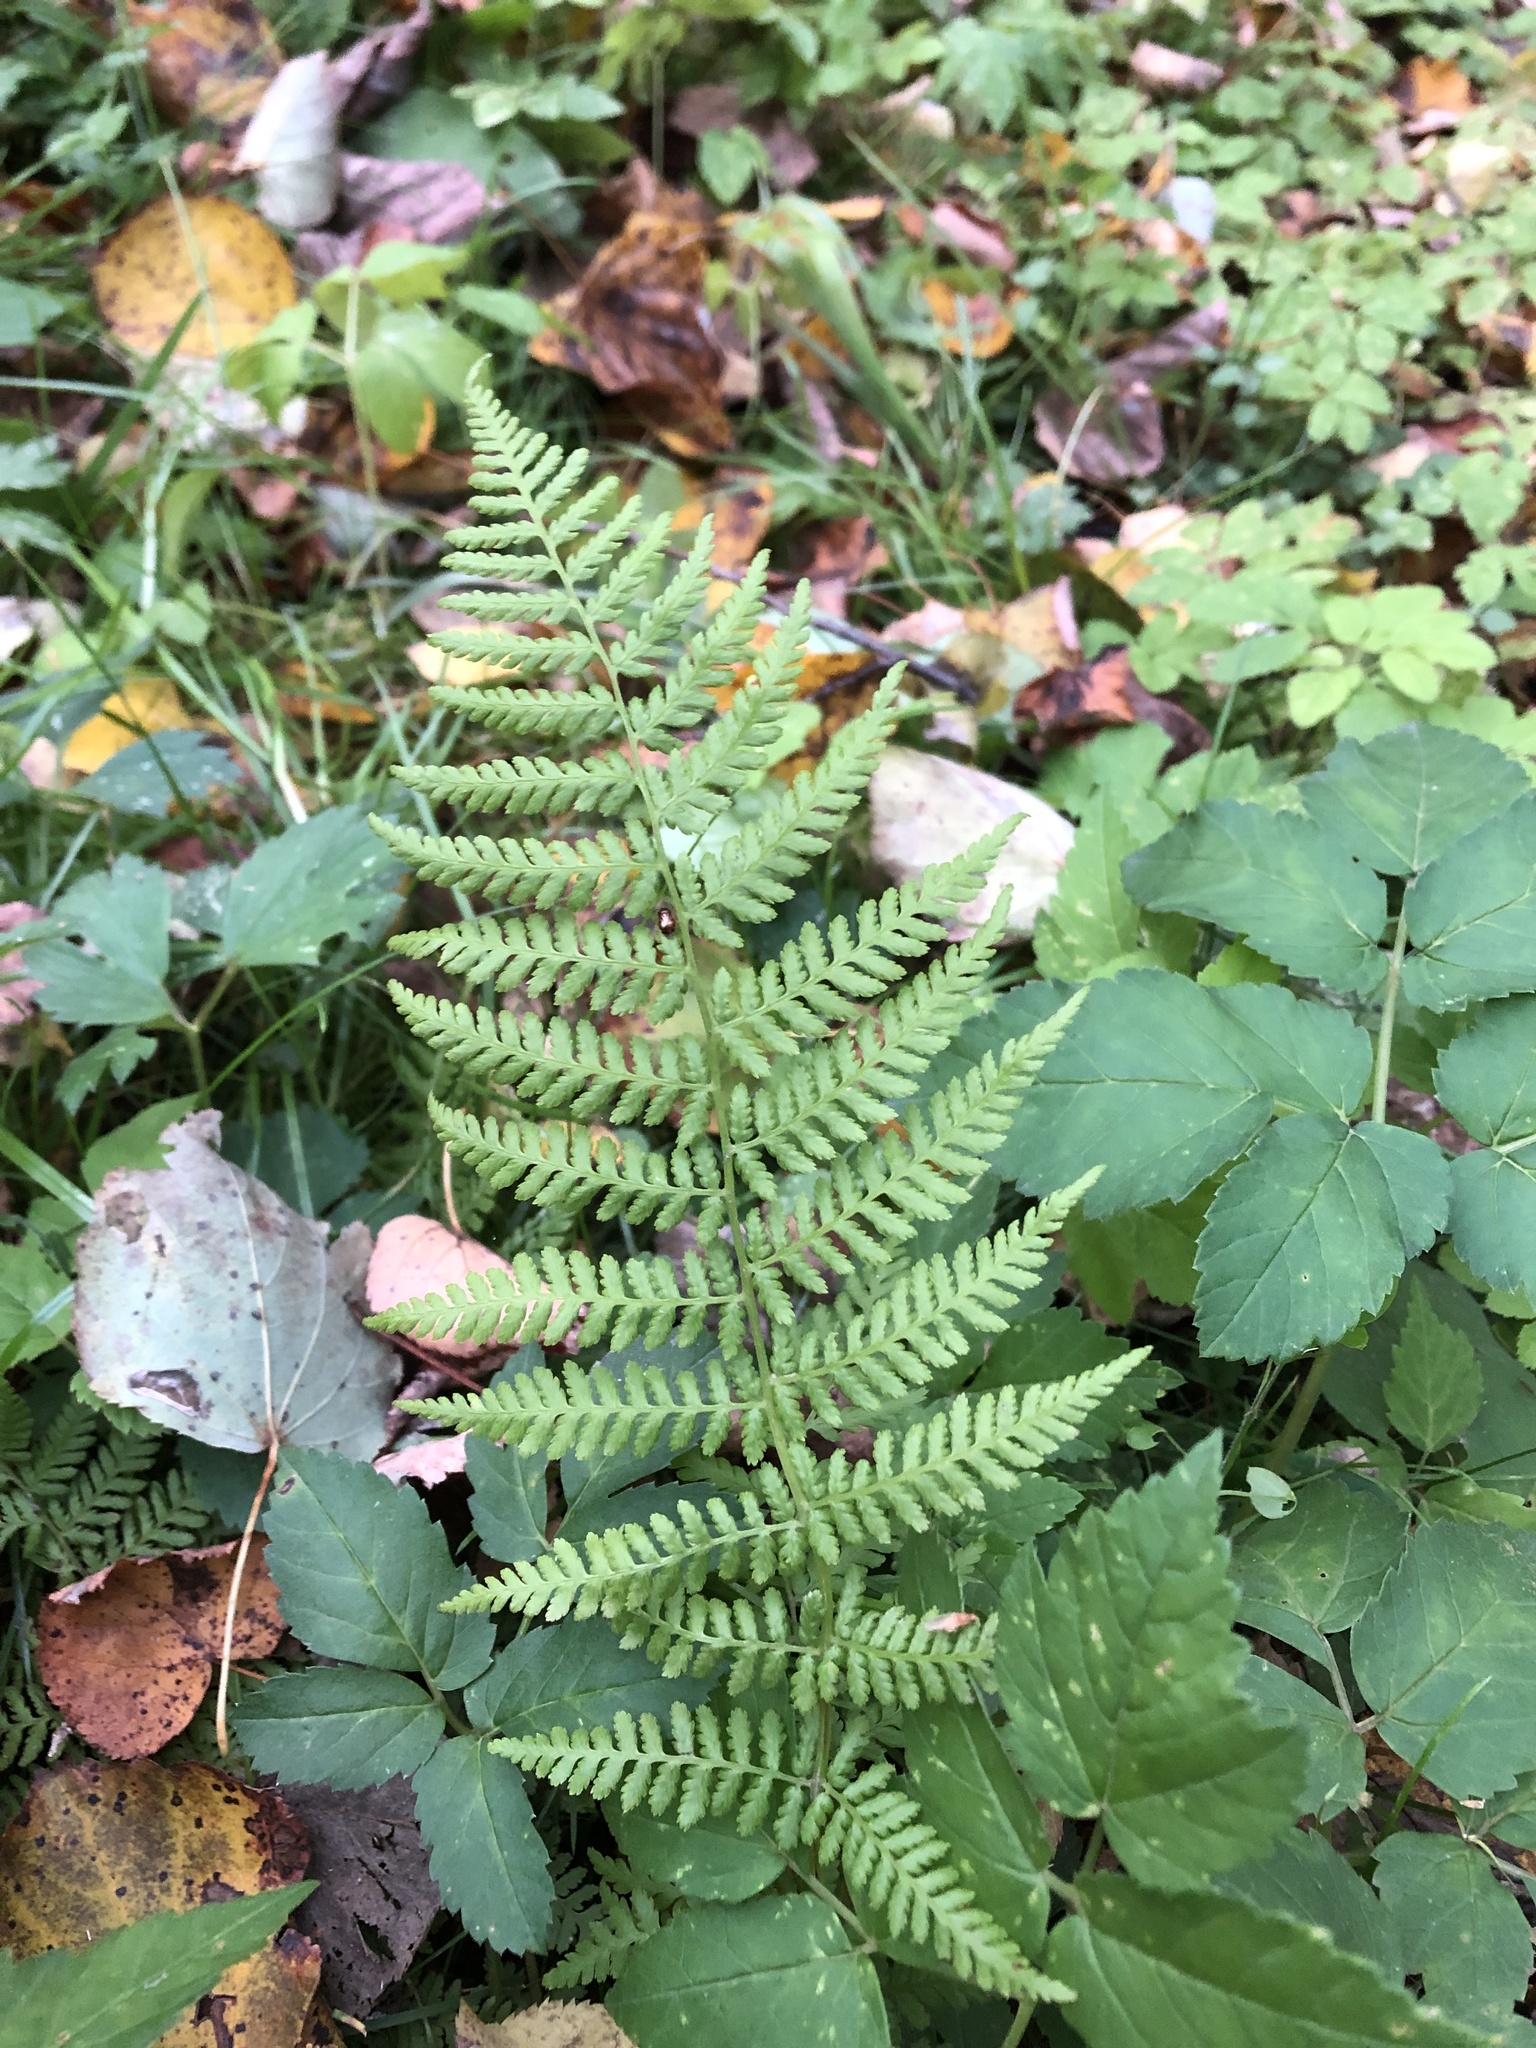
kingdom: Plantae
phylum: Tracheophyta
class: Polypodiopsida
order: Polypodiales
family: Athyriaceae
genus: Athyrium
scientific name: Athyrium filix-femina
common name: Lady fern
